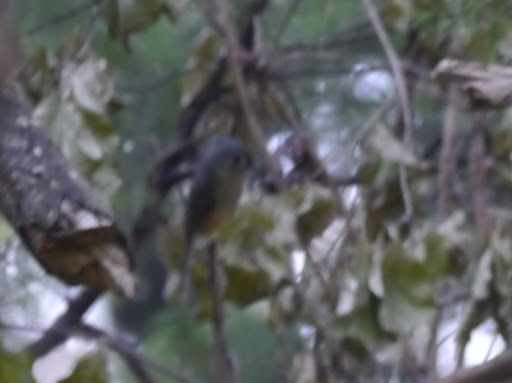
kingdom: Animalia
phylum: Chordata
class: Aves
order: Passeriformes
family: Paridae
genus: Baeolophus
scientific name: Baeolophus bicolor
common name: Tufted titmouse
